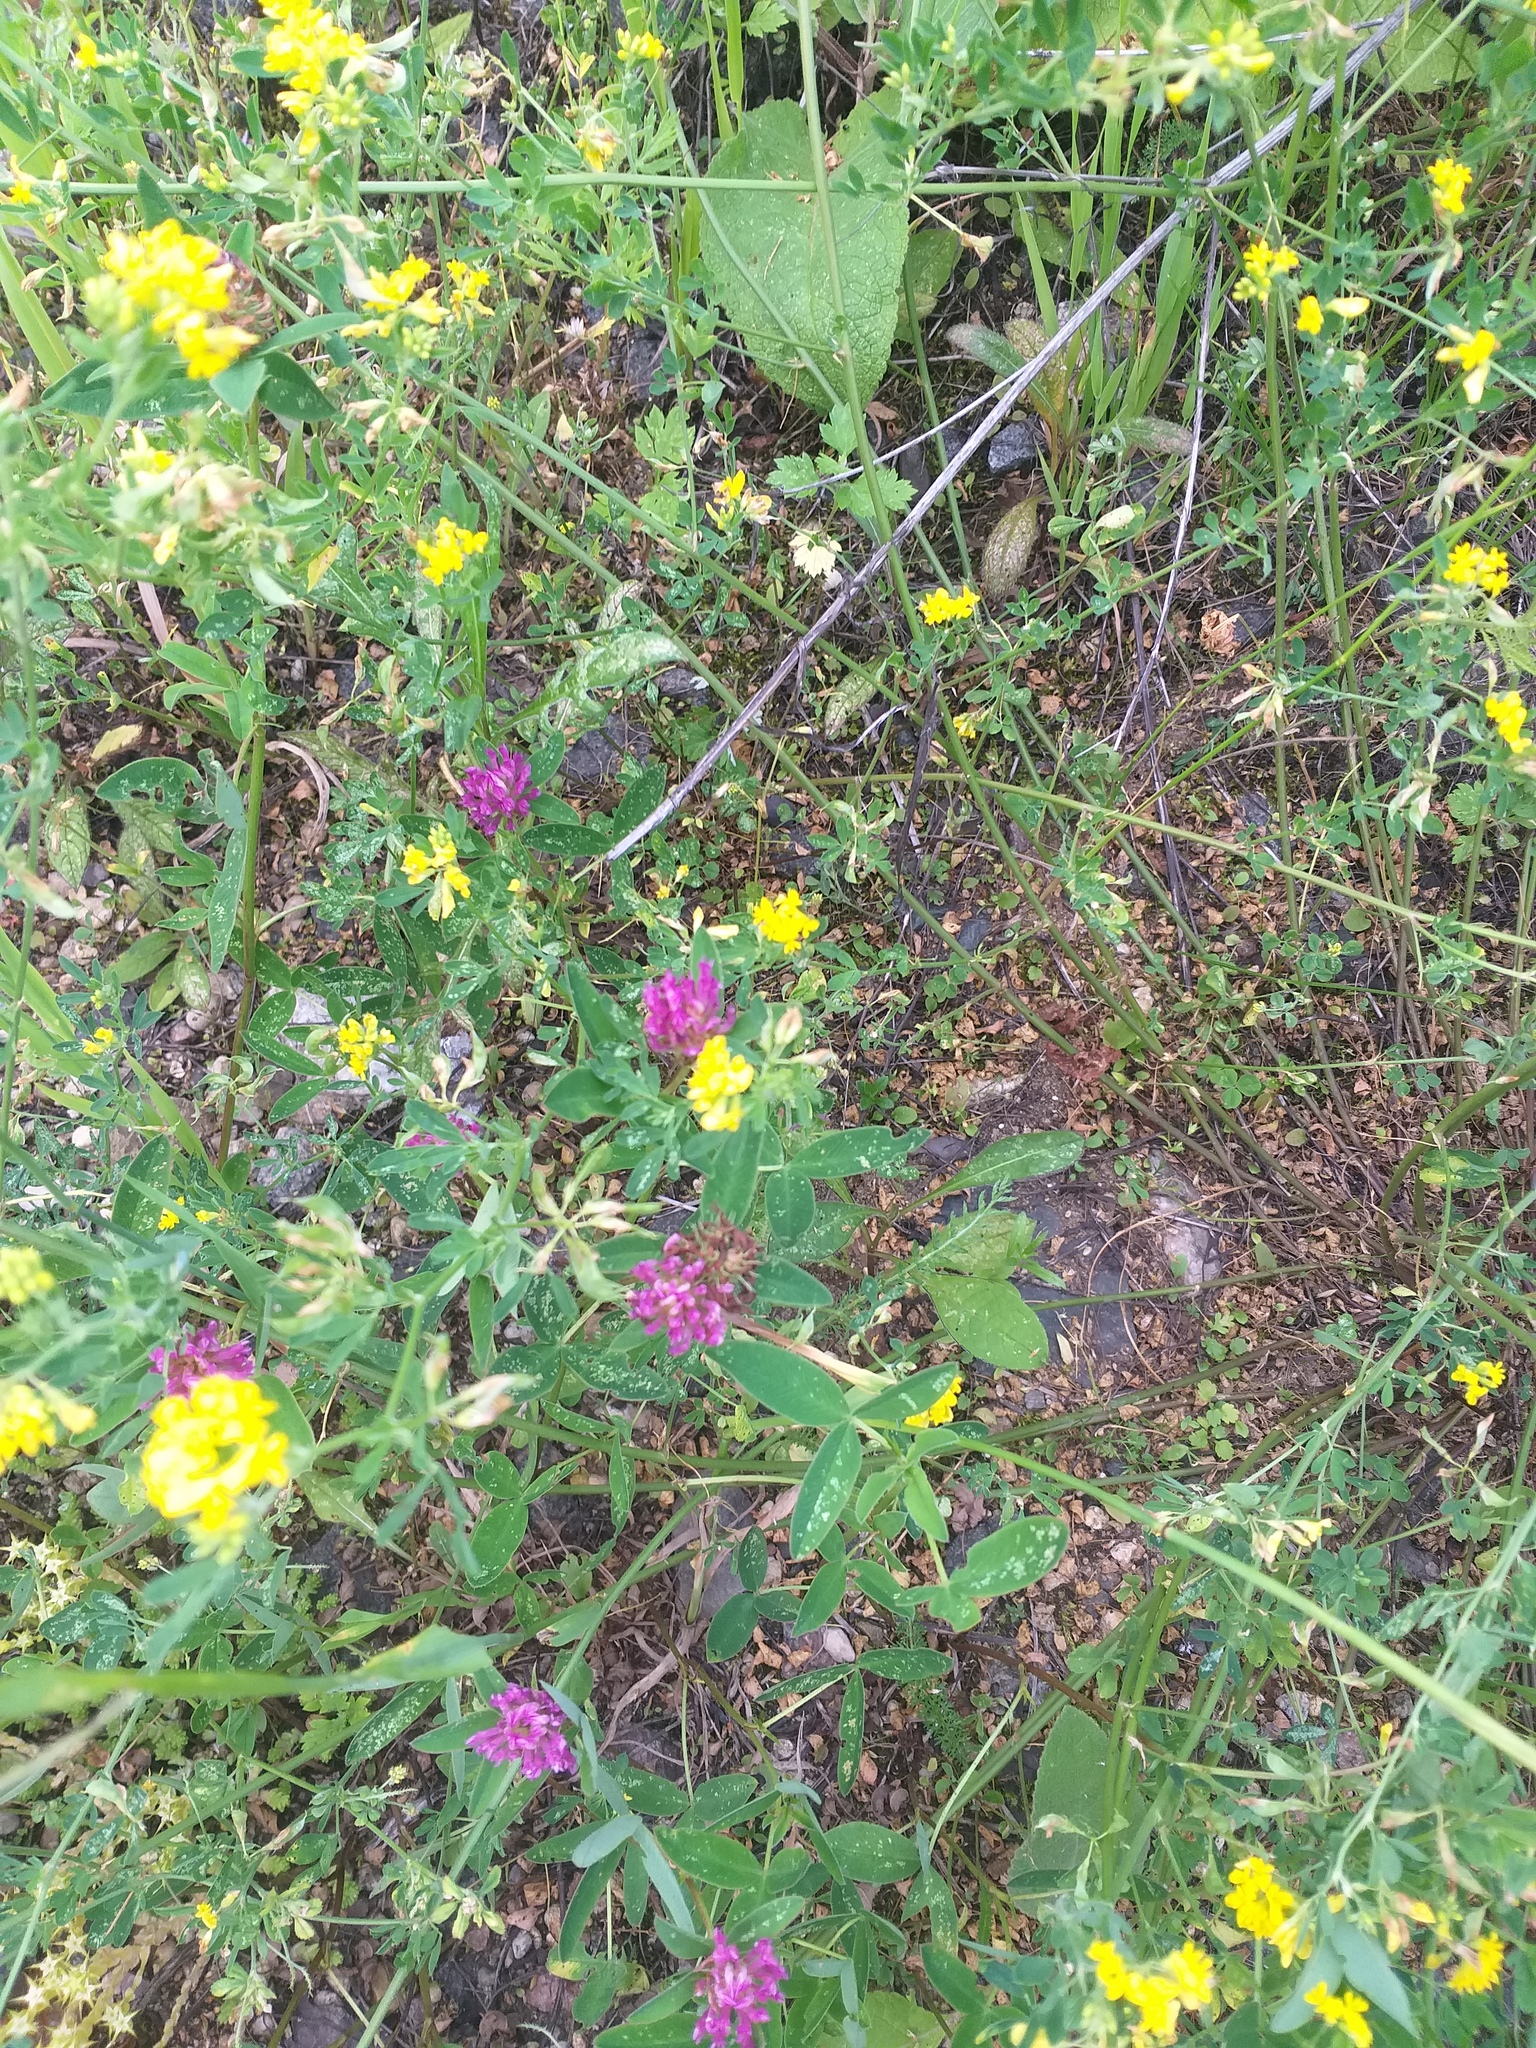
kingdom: Plantae
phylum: Tracheophyta
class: Magnoliopsida
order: Fabales
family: Fabaceae
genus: Trifolium
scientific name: Trifolium medium
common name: Zigzag clover
